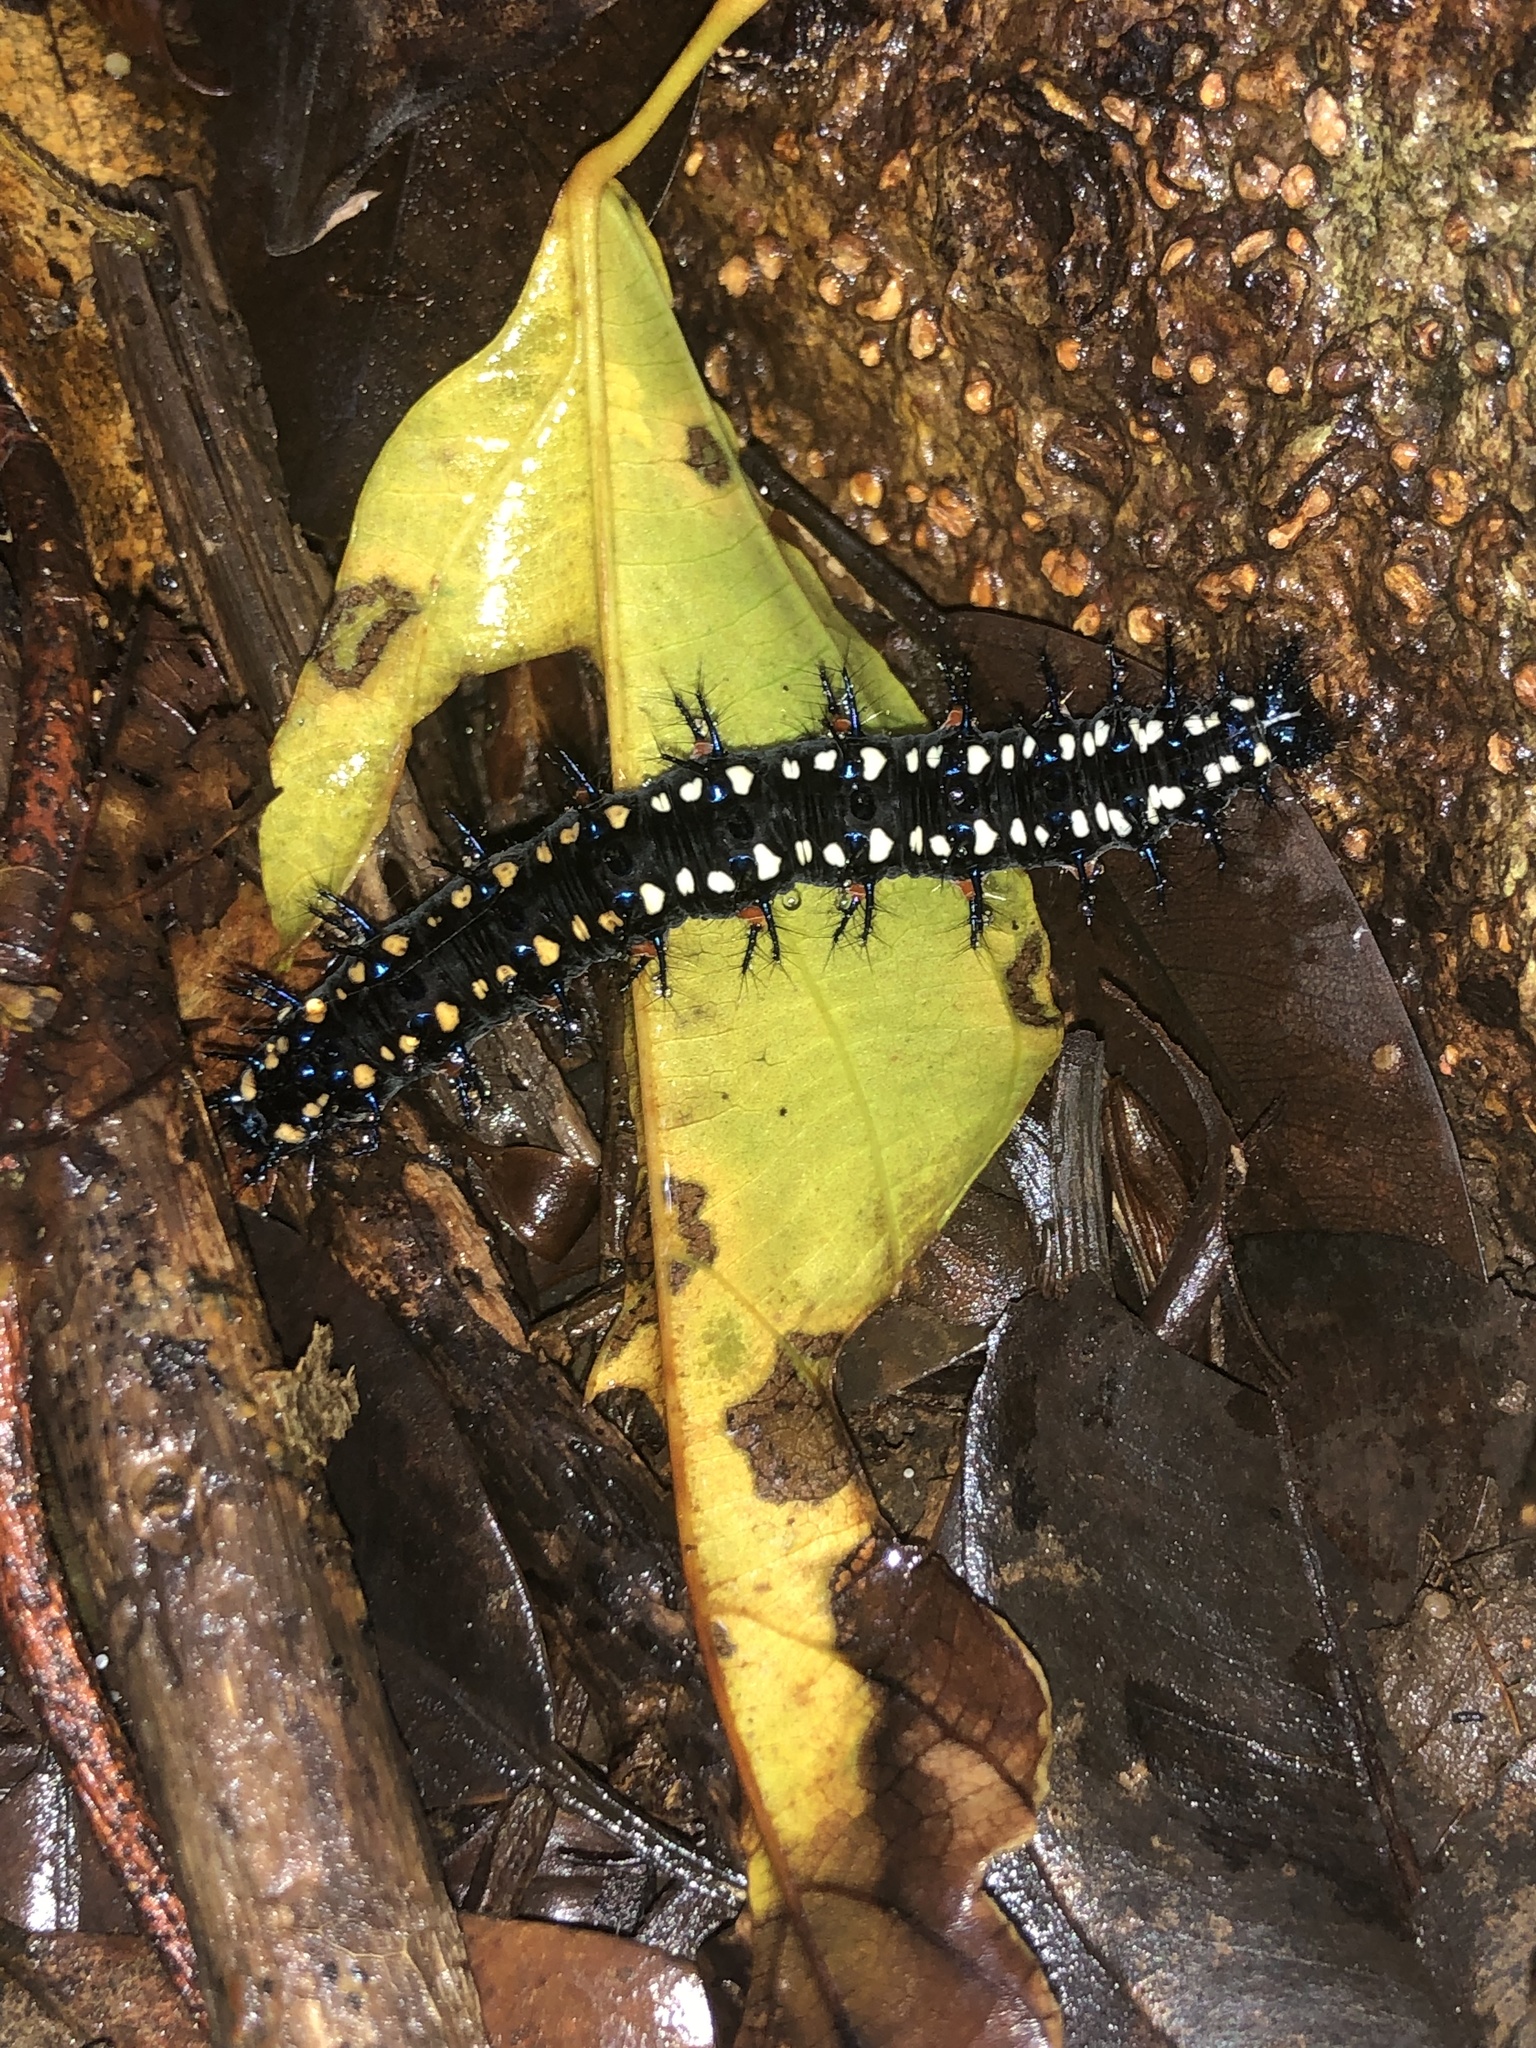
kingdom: Animalia
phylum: Arthropoda
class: Insecta
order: Lepidoptera
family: Nymphalidae
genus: Doleschallia
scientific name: Doleschallia bisaltide
